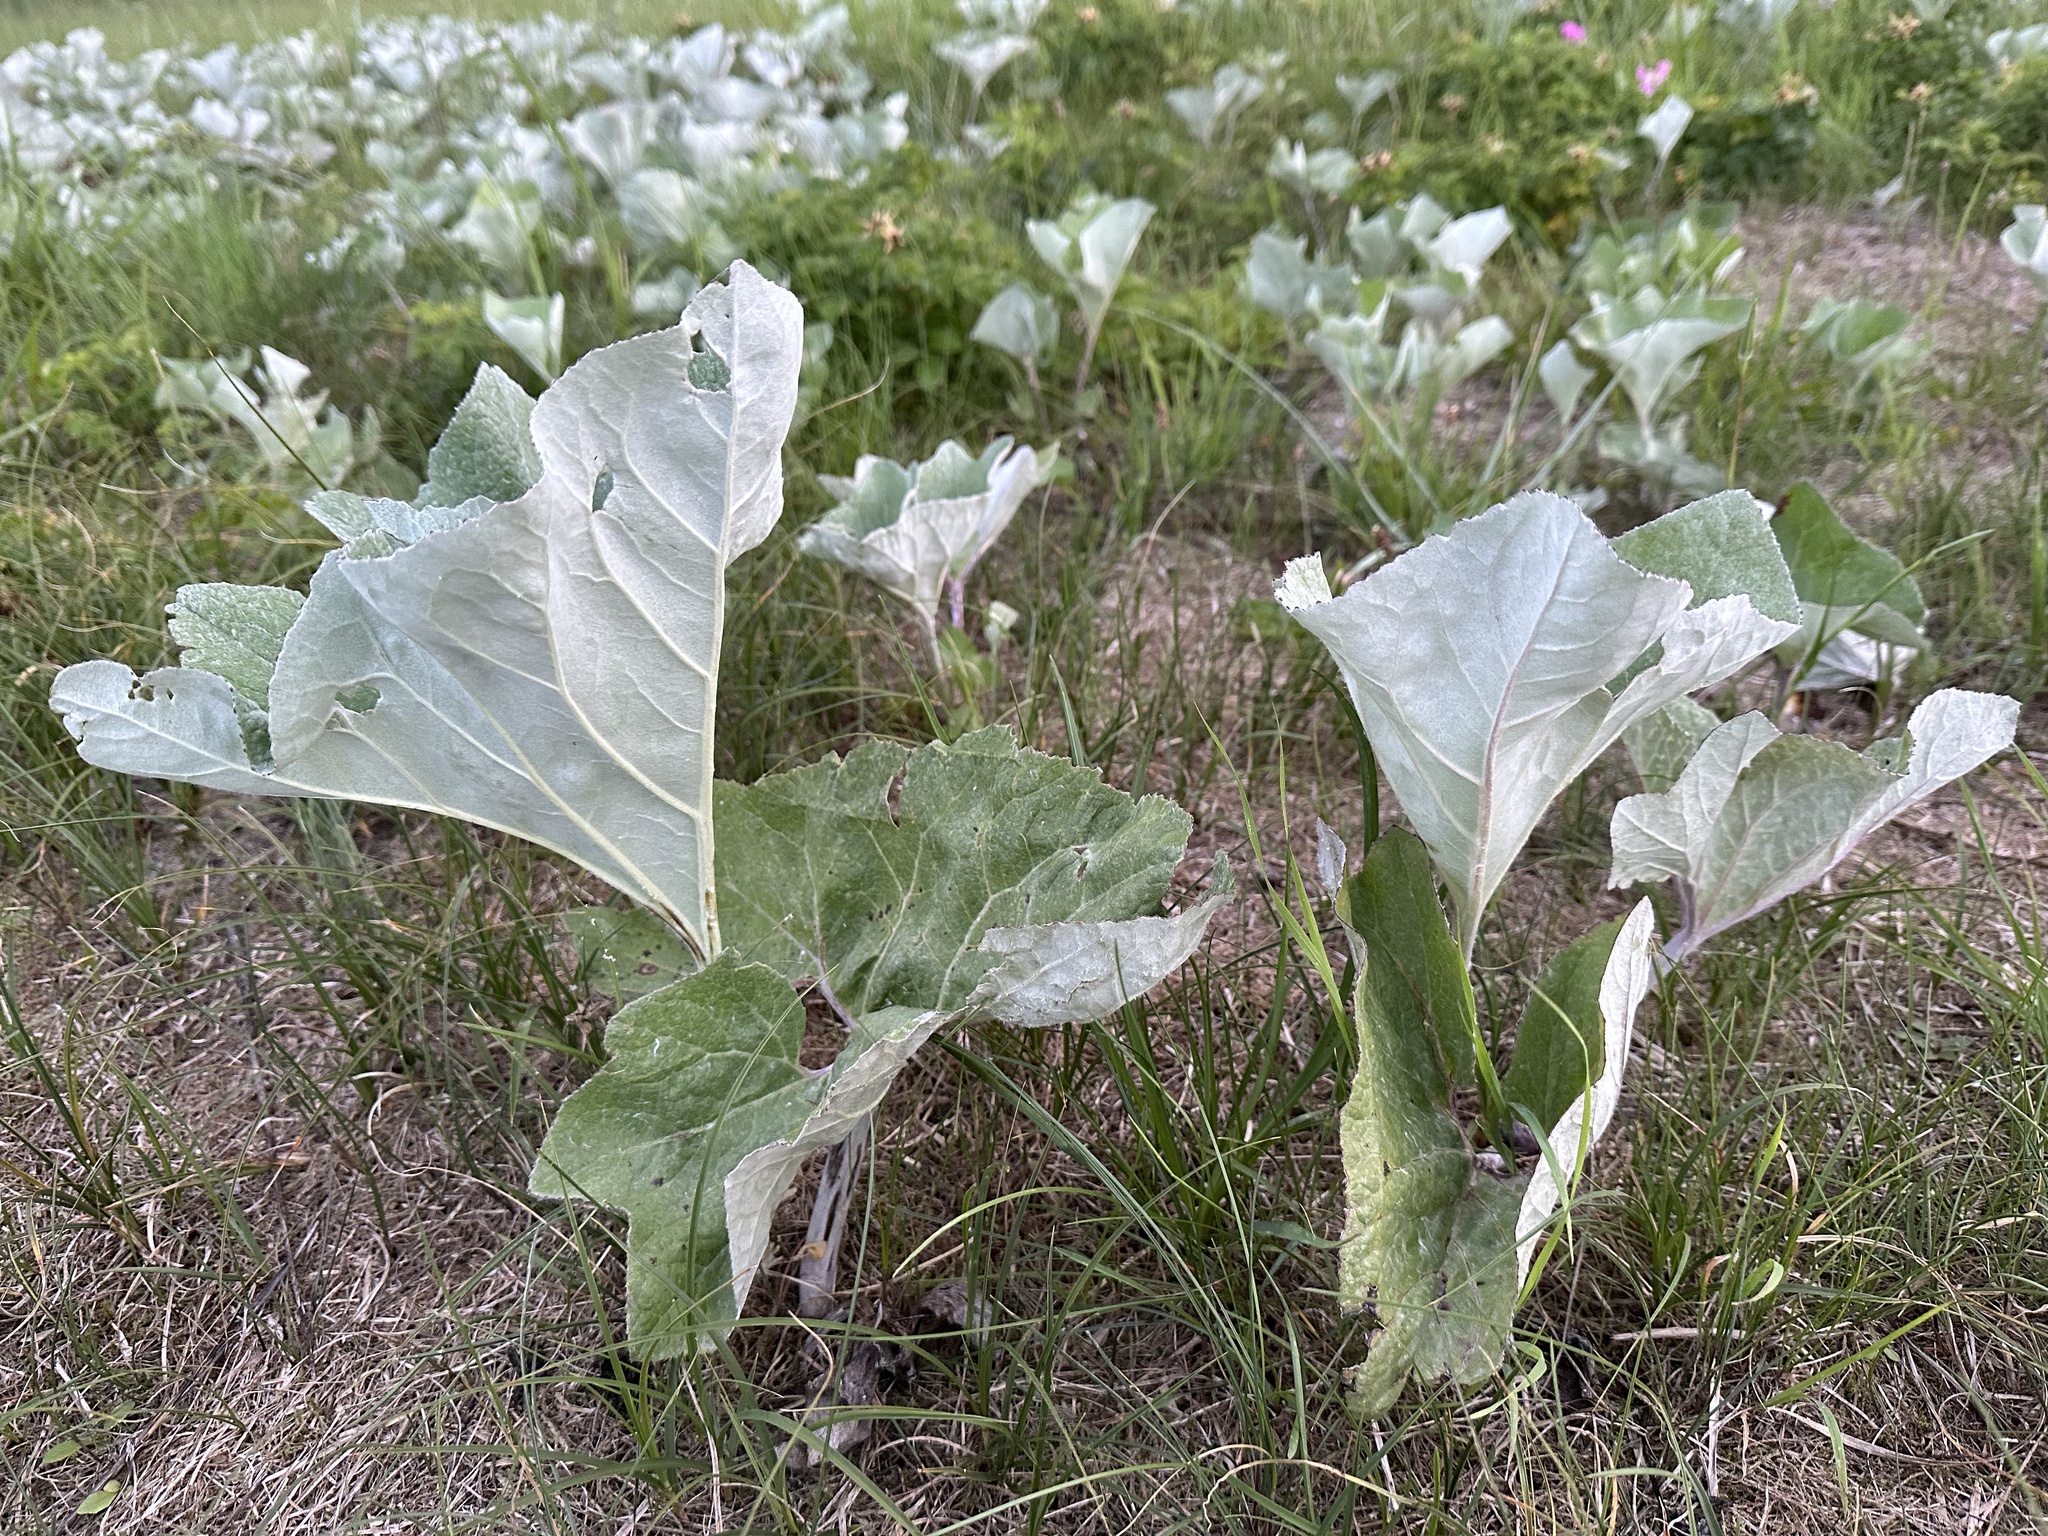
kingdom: Plantae
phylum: Tracheophyta
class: Magnoliopsida
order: Asterales
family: Asteraceae
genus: Petasites
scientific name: Petasites spurius
